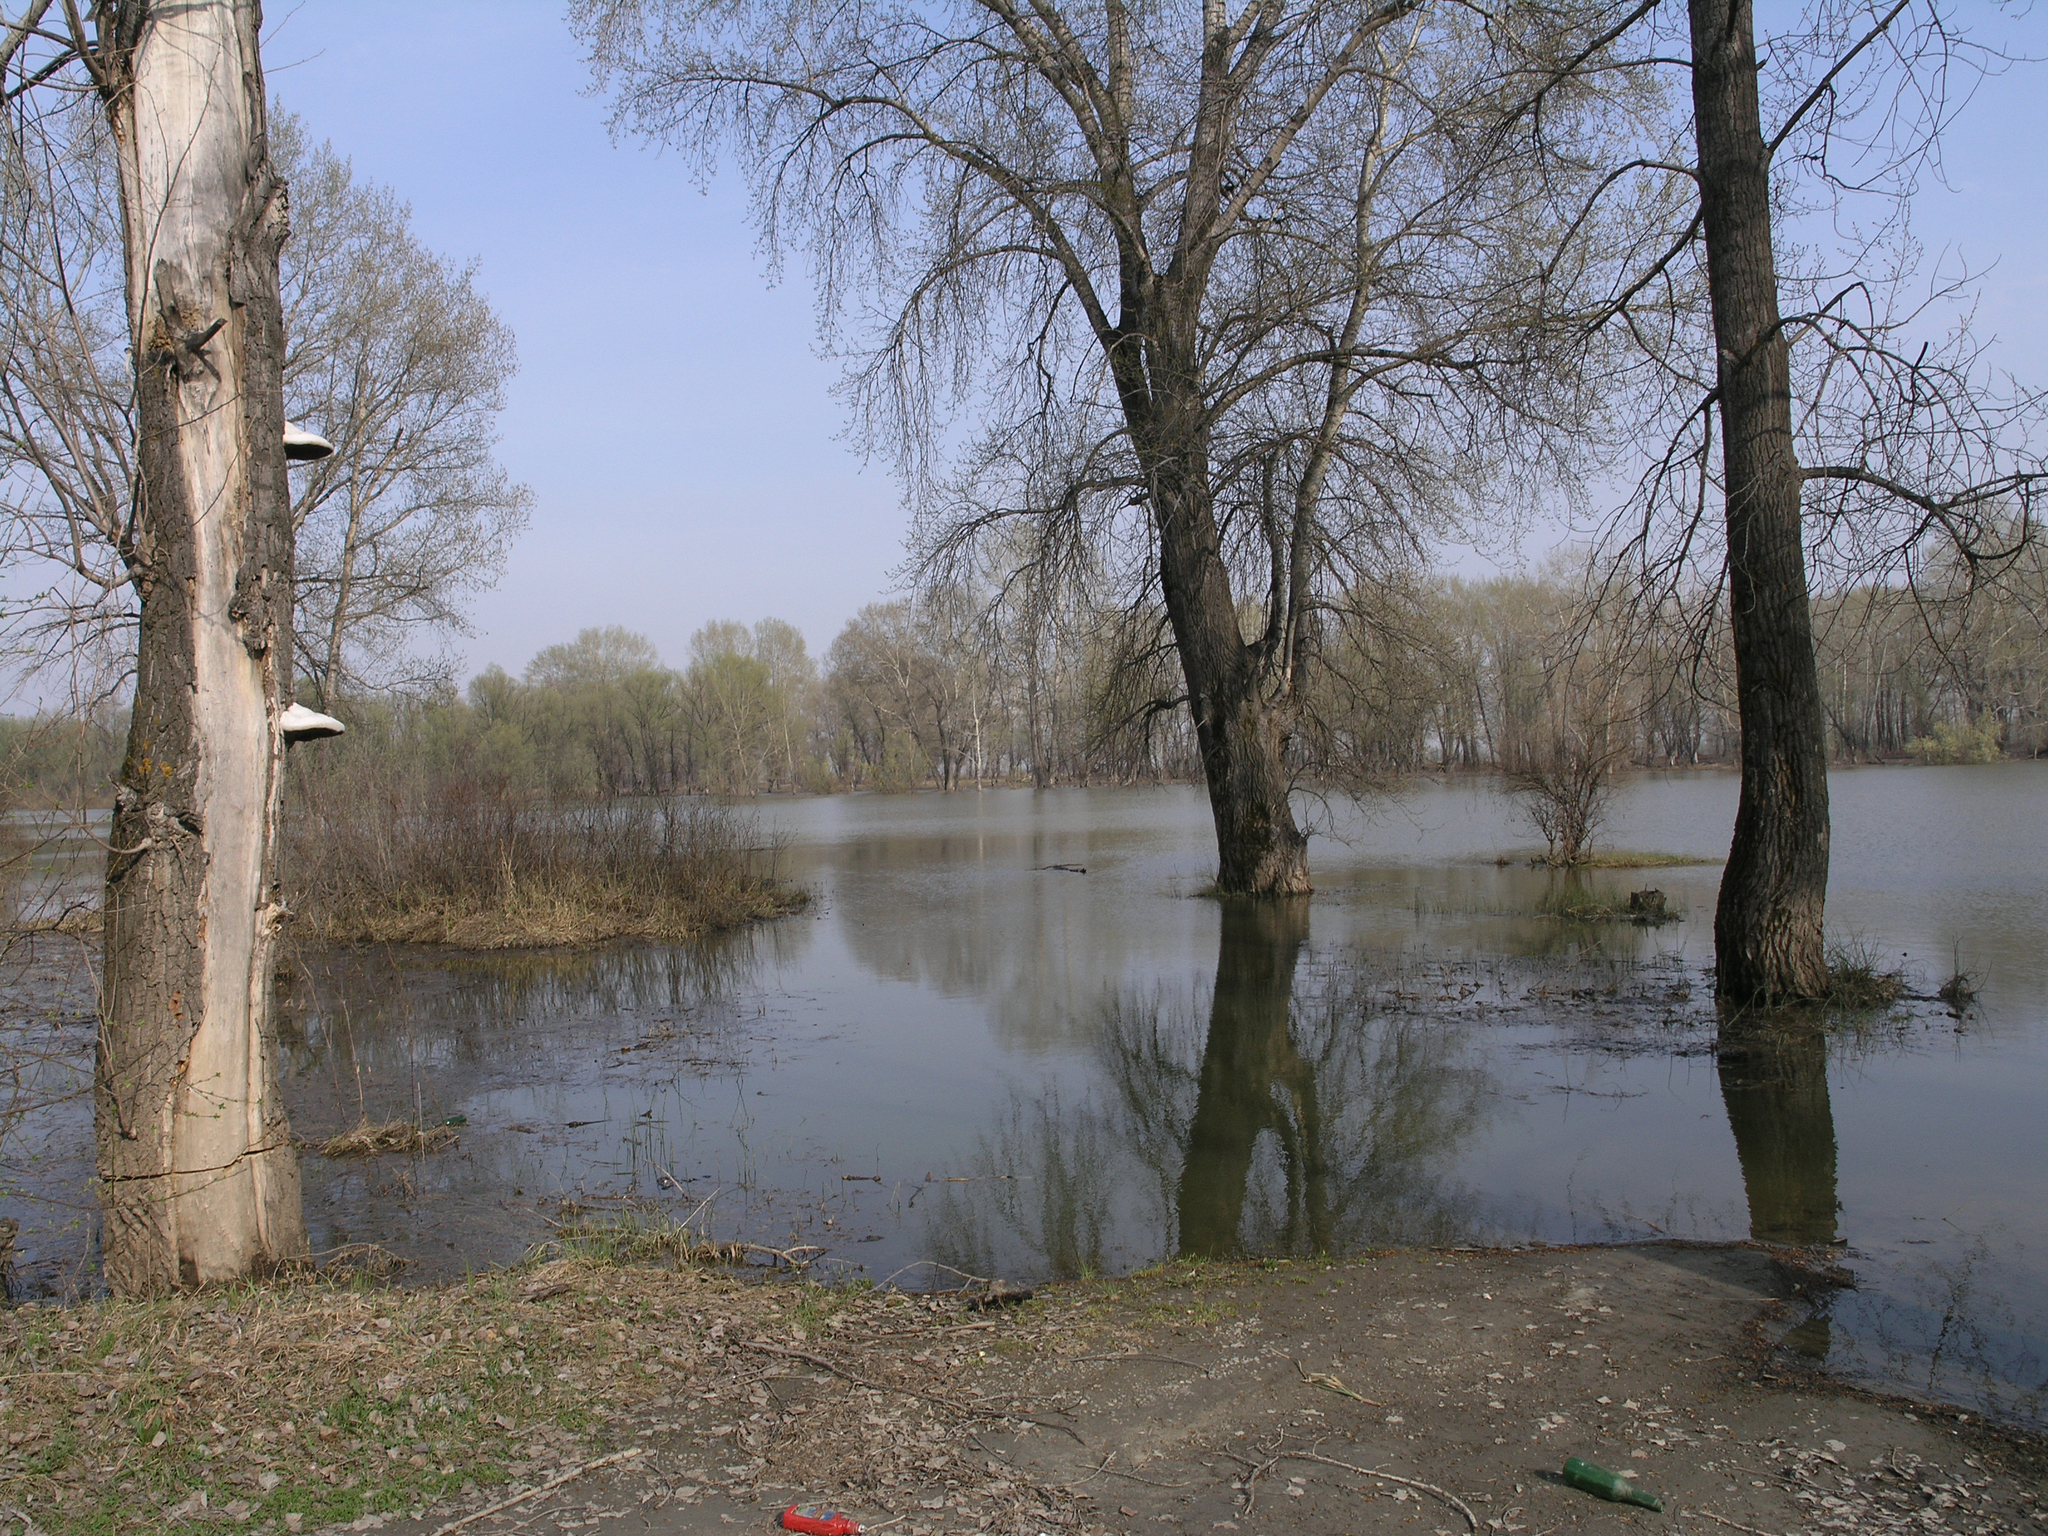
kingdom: Plantae
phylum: Tracheophyta
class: Magnoliopsida
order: Malpighiales
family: Salicaceae
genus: Salix
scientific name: Salix alba
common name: White willow
